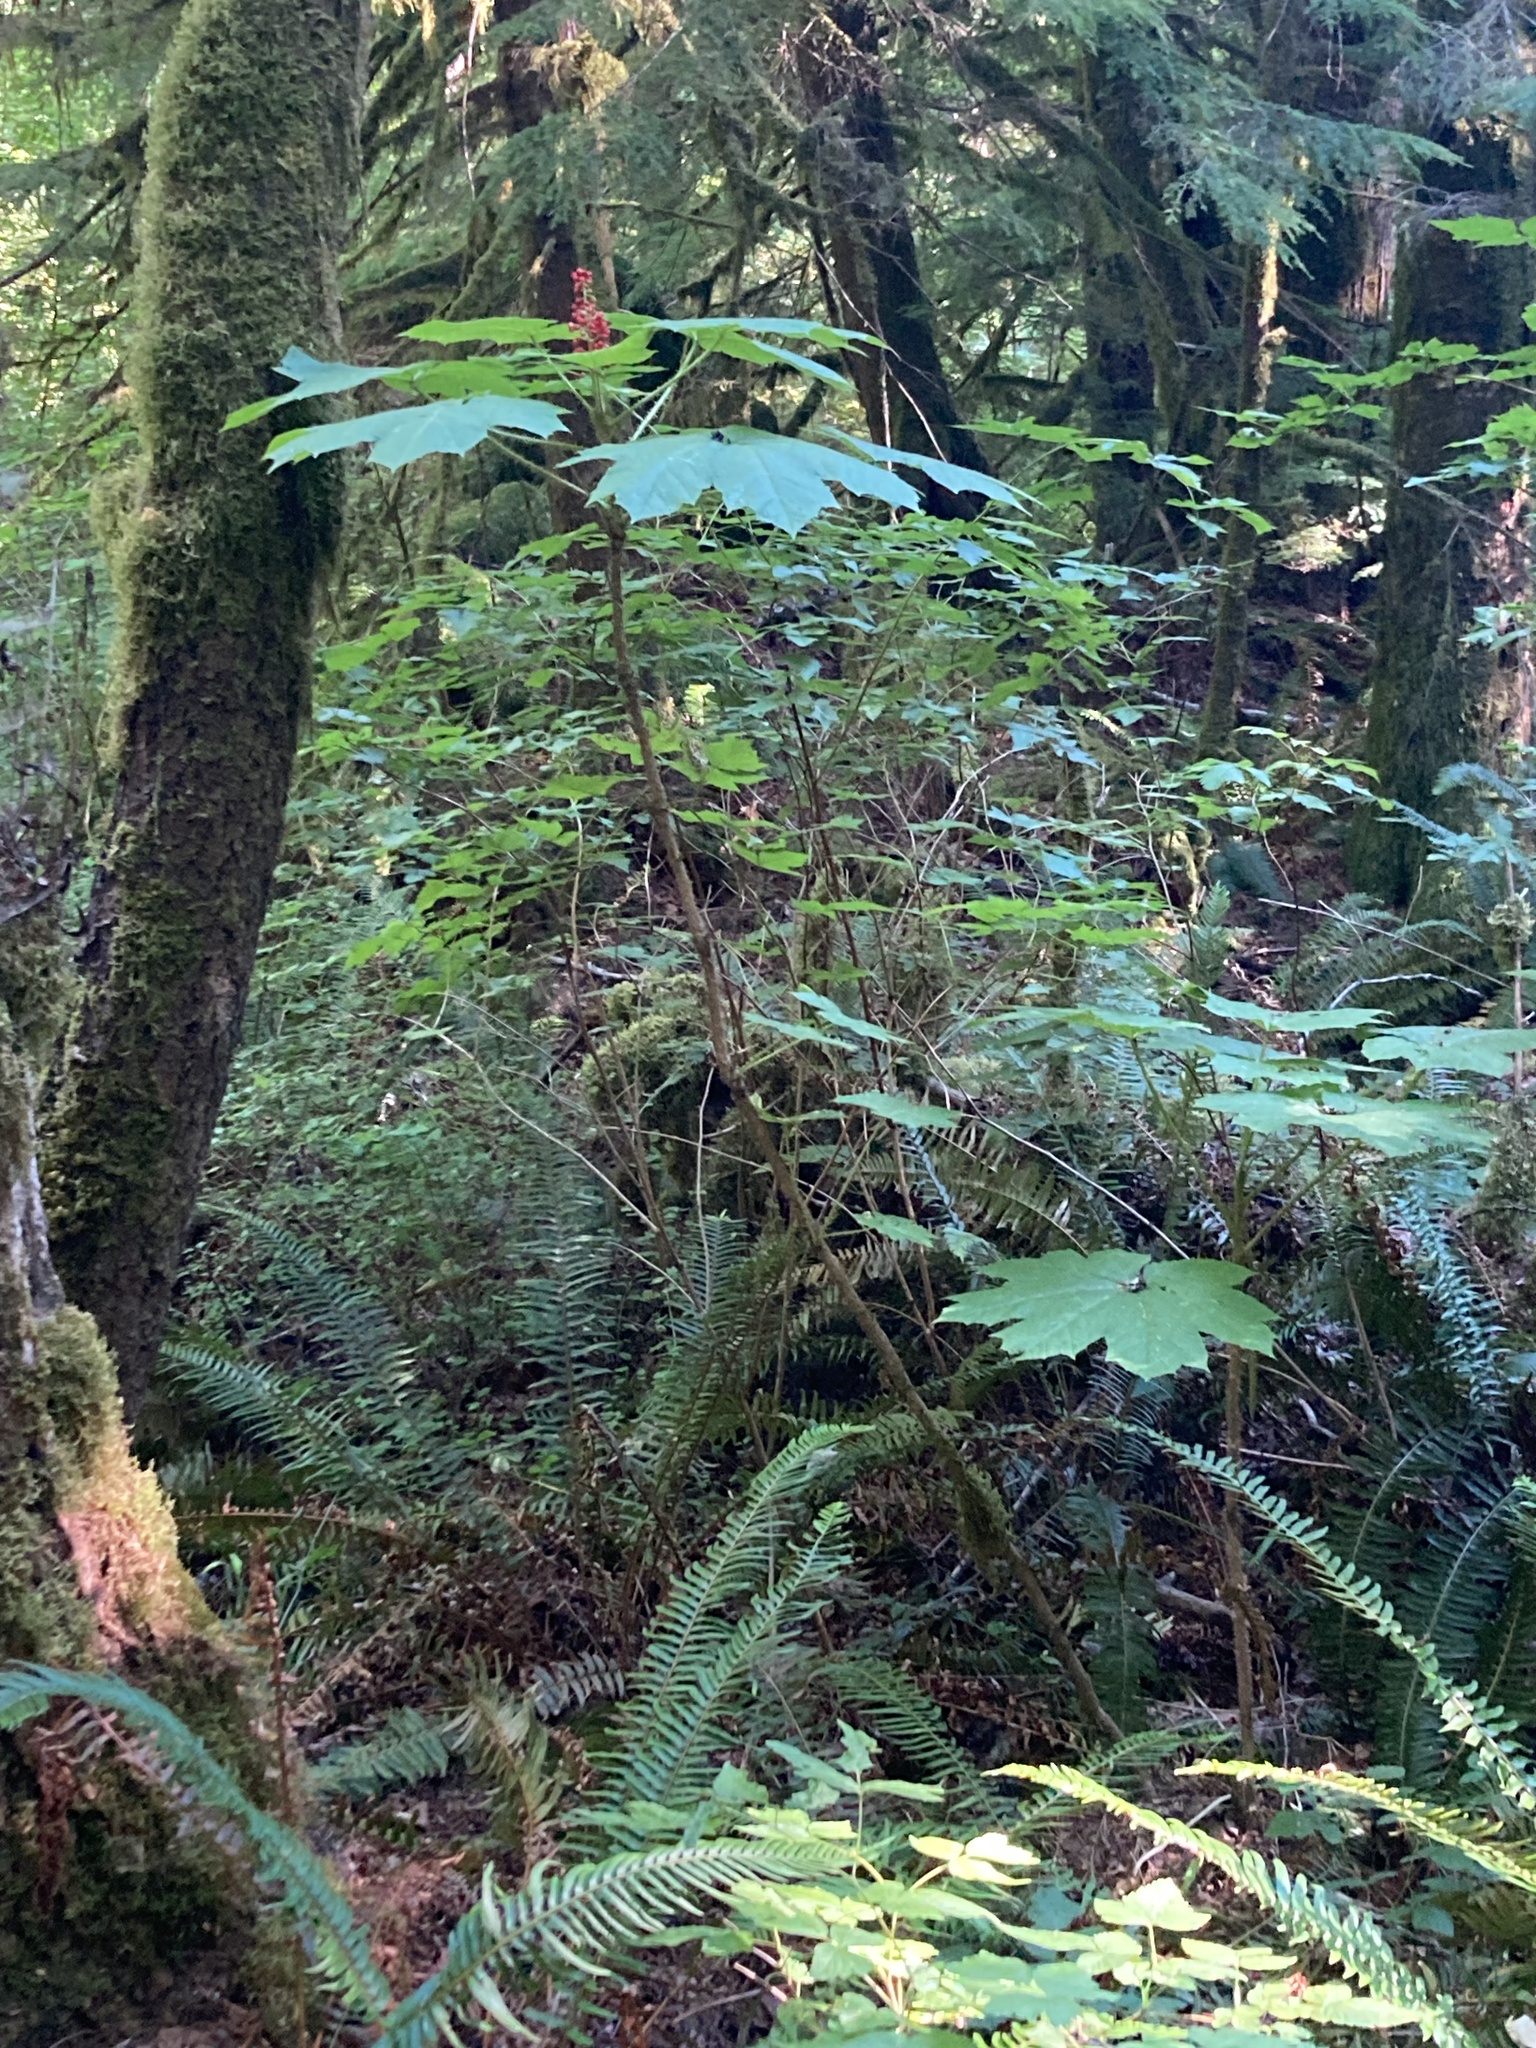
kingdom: Plantae
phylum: Tracheophyta
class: Magnoliopsida
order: Apiales
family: Araliaceae
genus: Oplopanax
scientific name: Oplopanax horridus
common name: Devil's walking-stick
